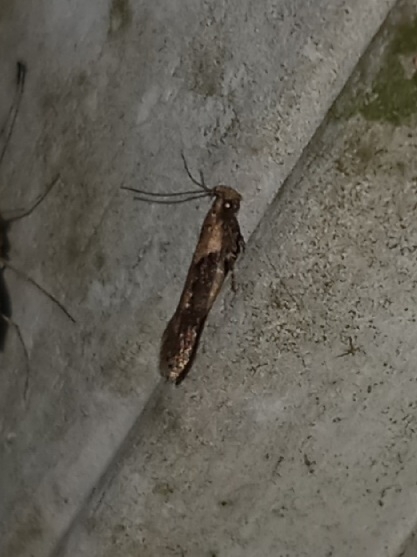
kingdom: Animalia
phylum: Arthropoda
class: Insecta
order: Lepidoptera
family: Gelechiidae
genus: Chionodes
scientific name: Chionodes mediofuscella
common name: Black-smudged chionodes moth
